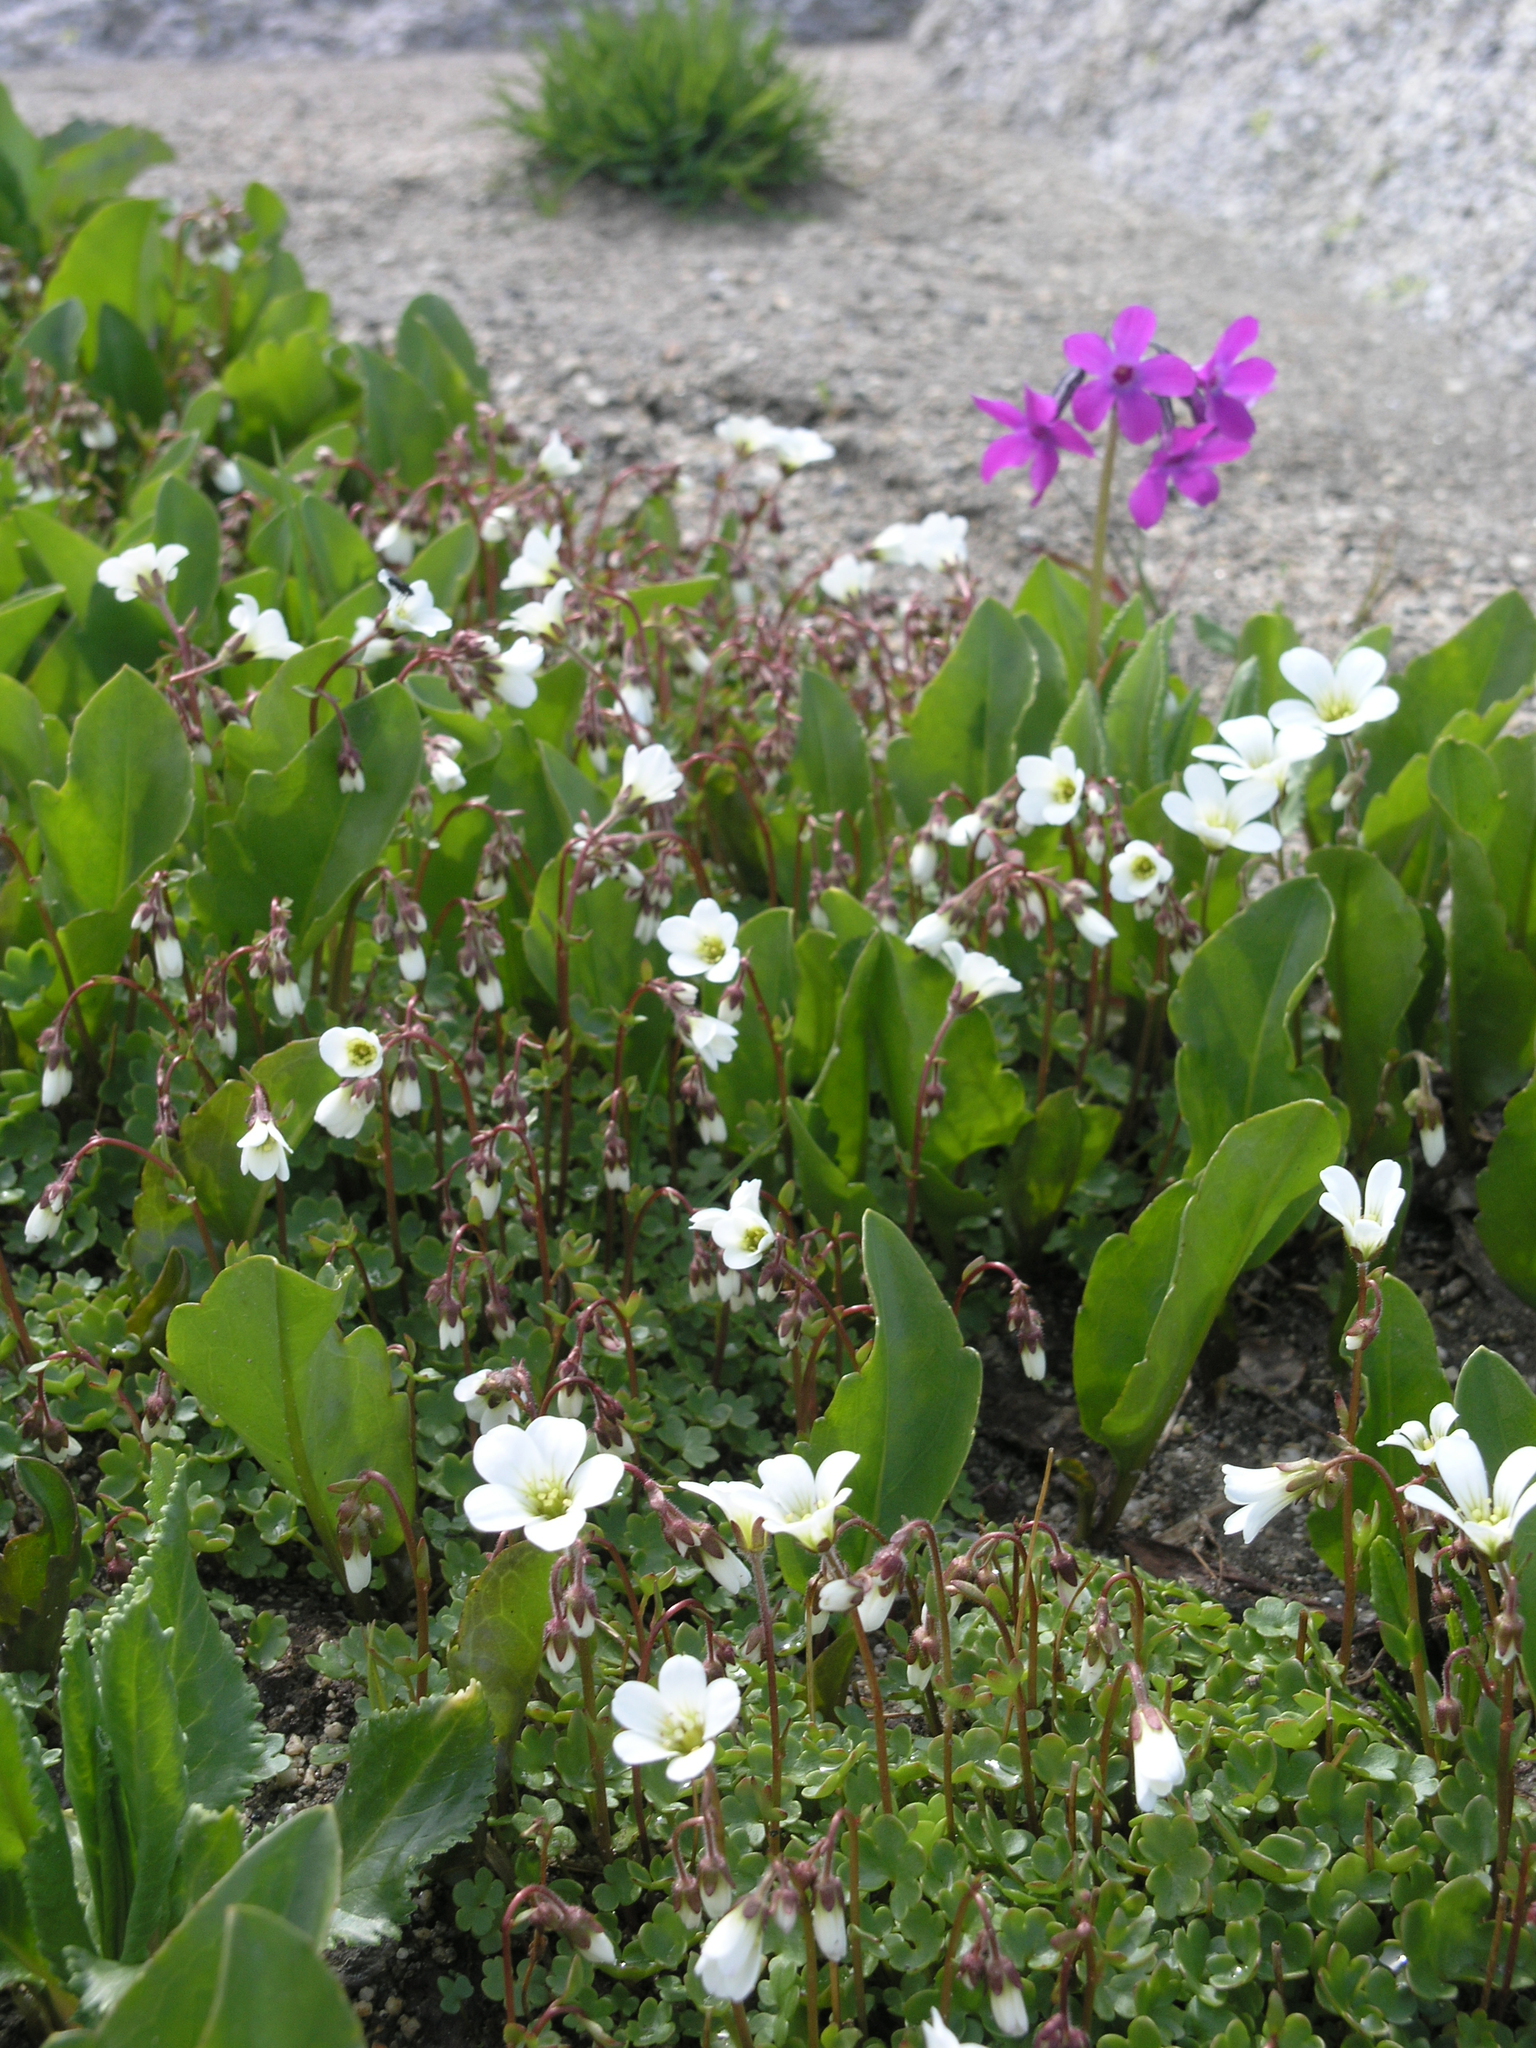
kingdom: Plantae
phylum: Tracheophyta
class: Magnoliopsida
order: Saxifragales
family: Saxifragaceae
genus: Saxifraga
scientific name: Saxifraga sibirica
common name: Siberian saxifrage
